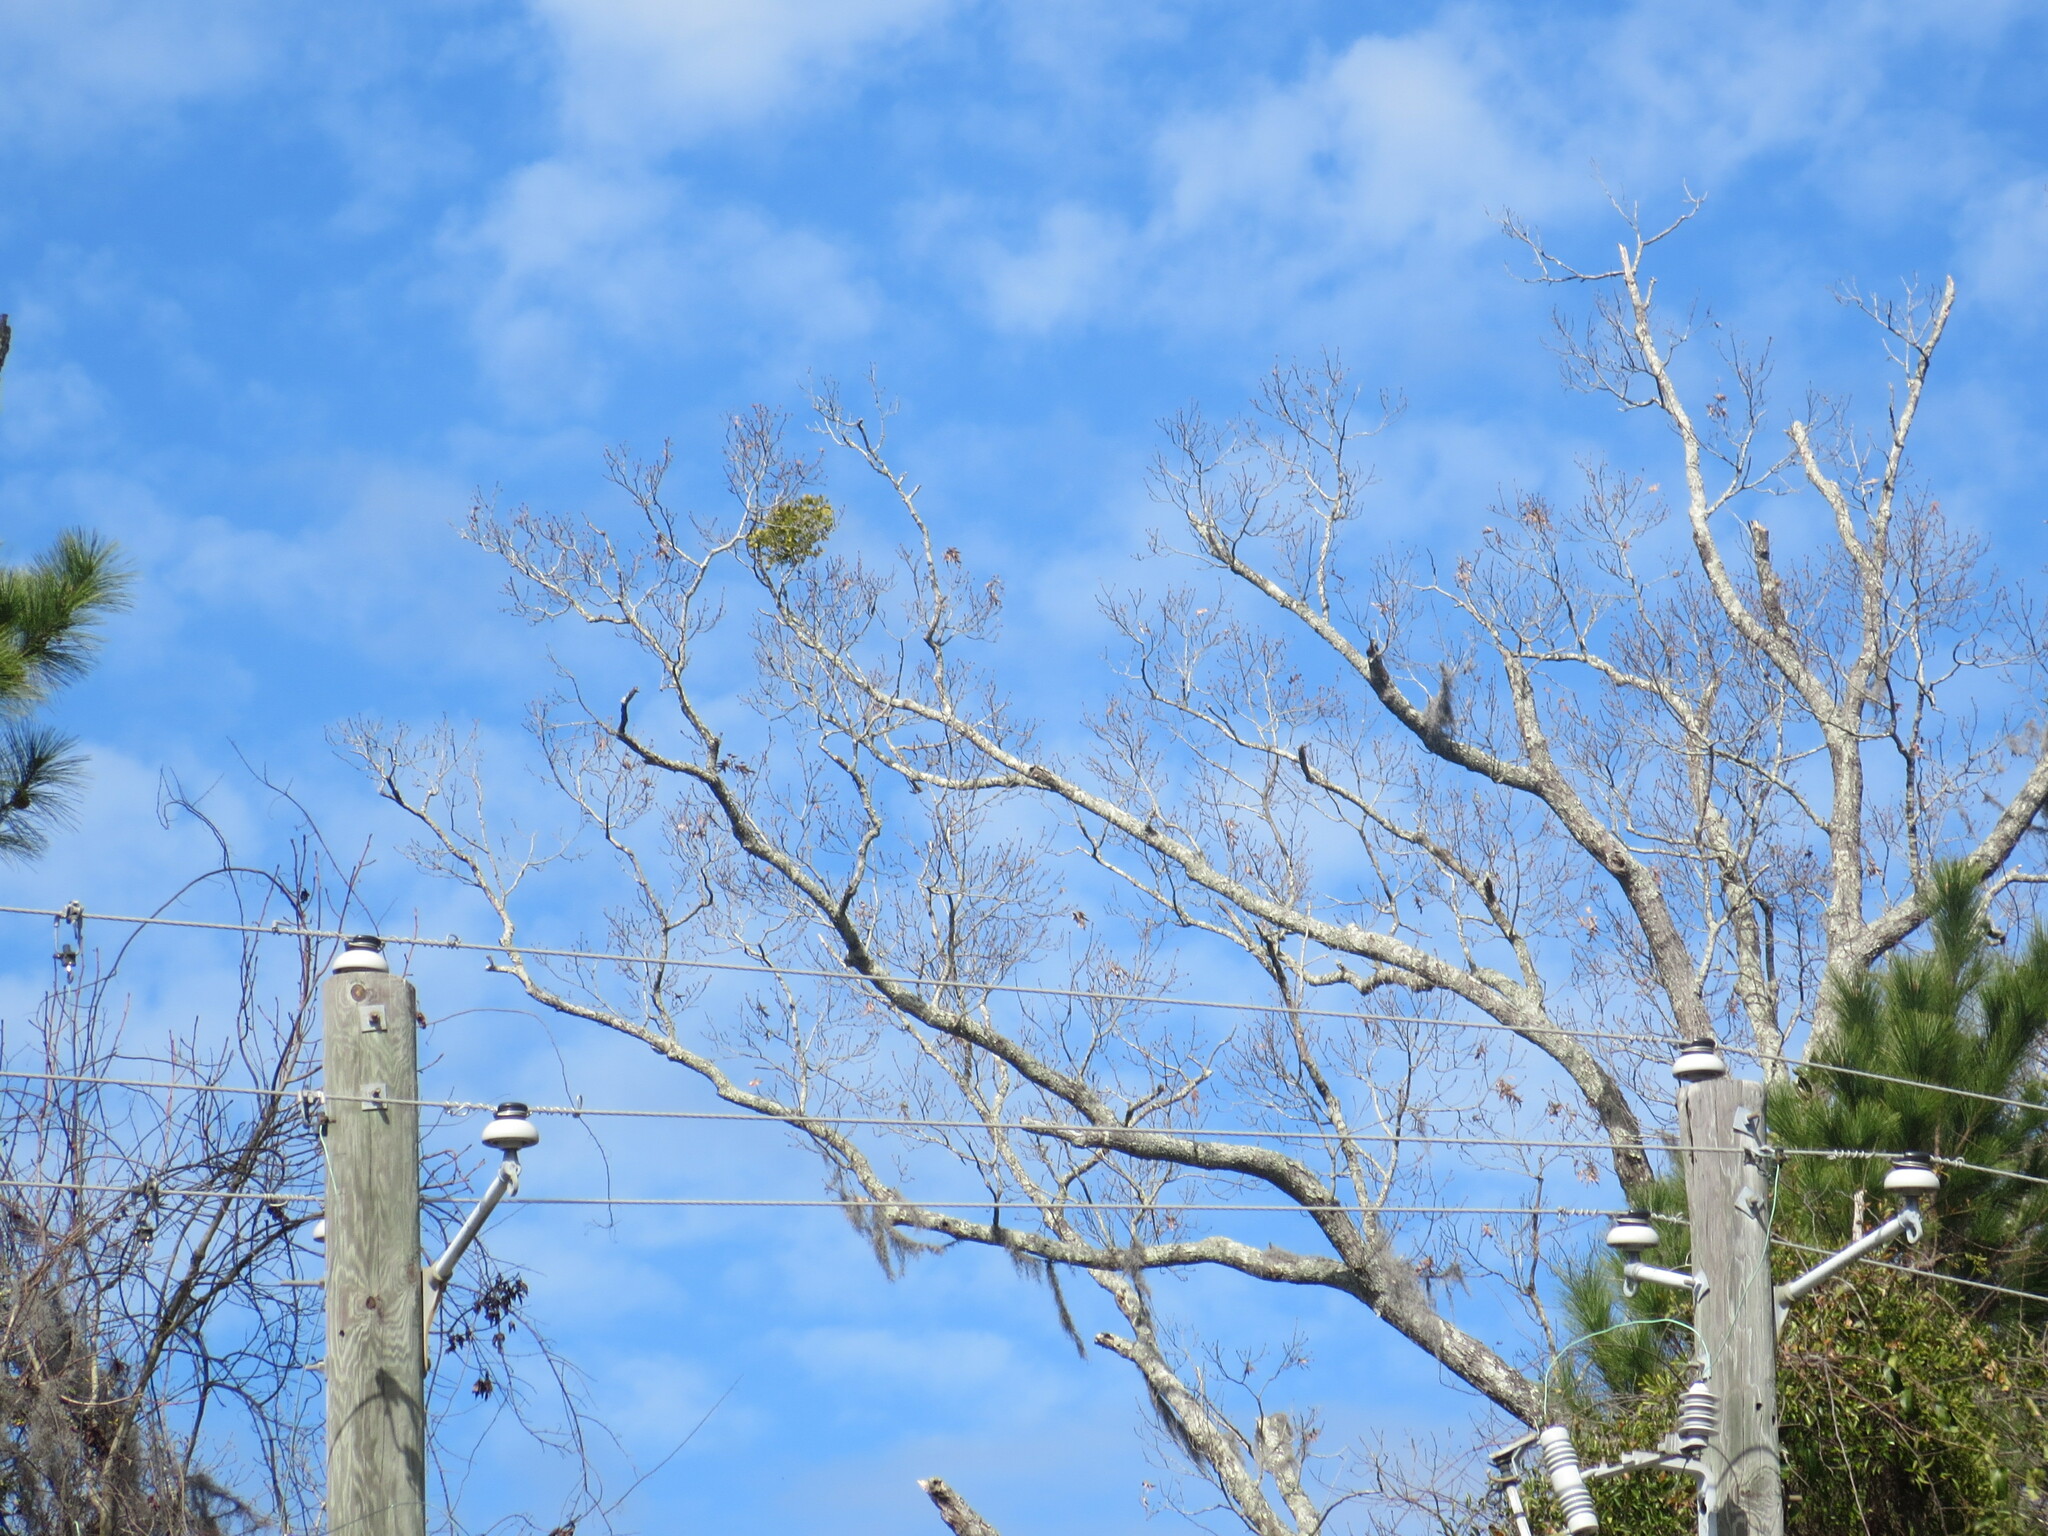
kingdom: Plantae
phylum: Tracheophyta
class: Magnoliopsida
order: Santalales
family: Viscaceae
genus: Phoradendron
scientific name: Phoradendron leucarpum
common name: Pacific mistletoe
